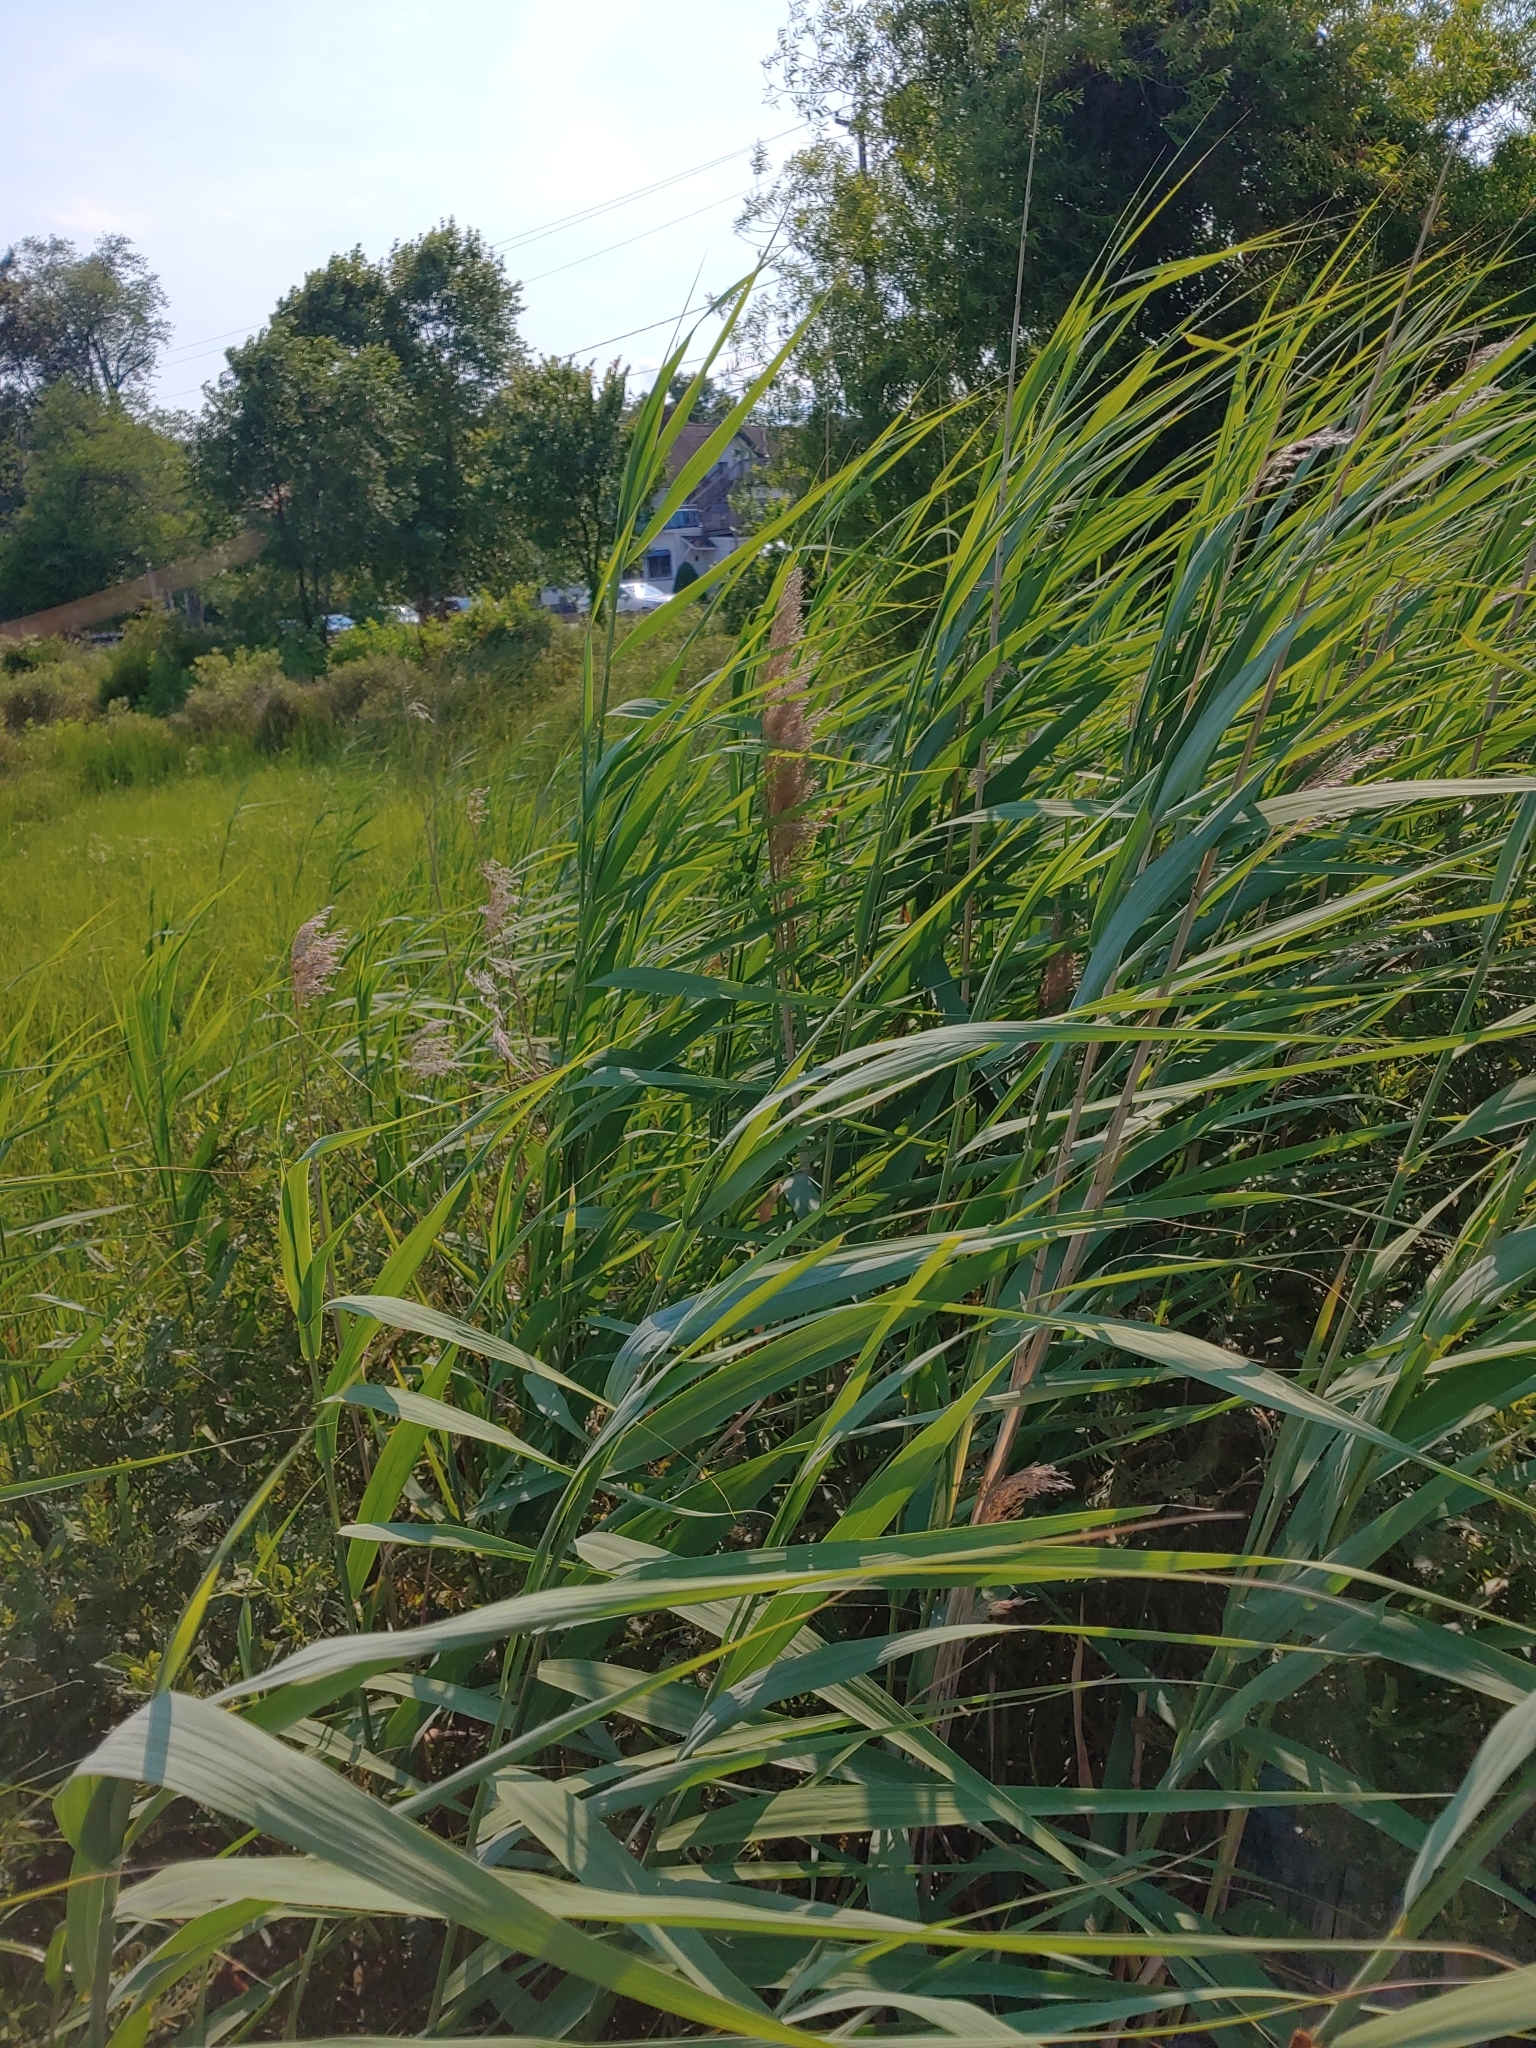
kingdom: Plantae
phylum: Tracheophyta
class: Liliopsida
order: Poales
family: Poaceae
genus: Phragmites
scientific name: Phragmites australis
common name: Common reed
